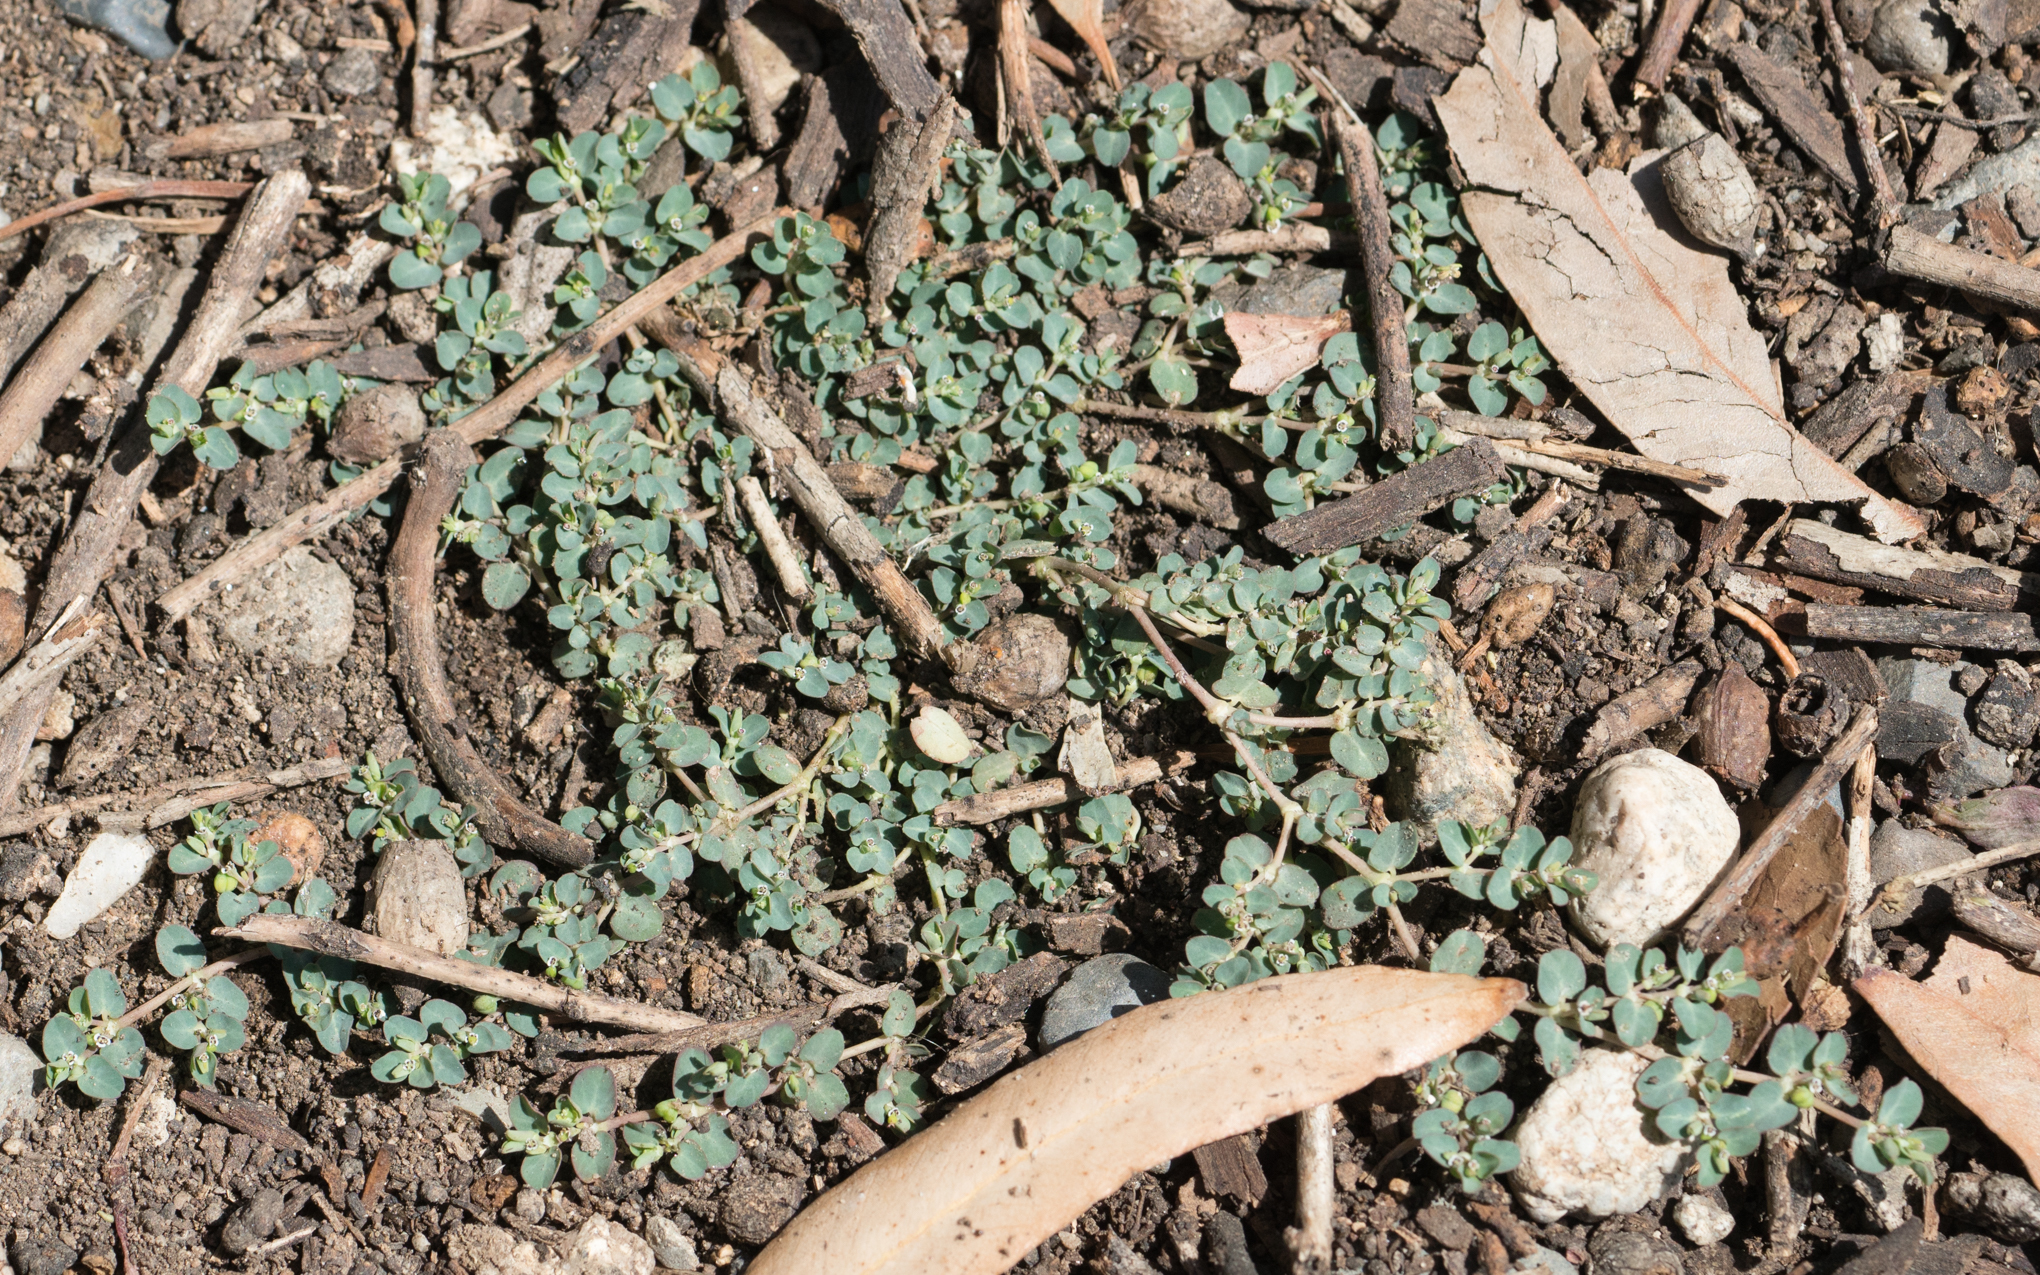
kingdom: Plantae
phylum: Tracheophyta
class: Magnoliopsida
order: Malpighiales
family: Euphorbiaceae
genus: Euphorbia
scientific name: Euphorbia serpens
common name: Matted sandmat
